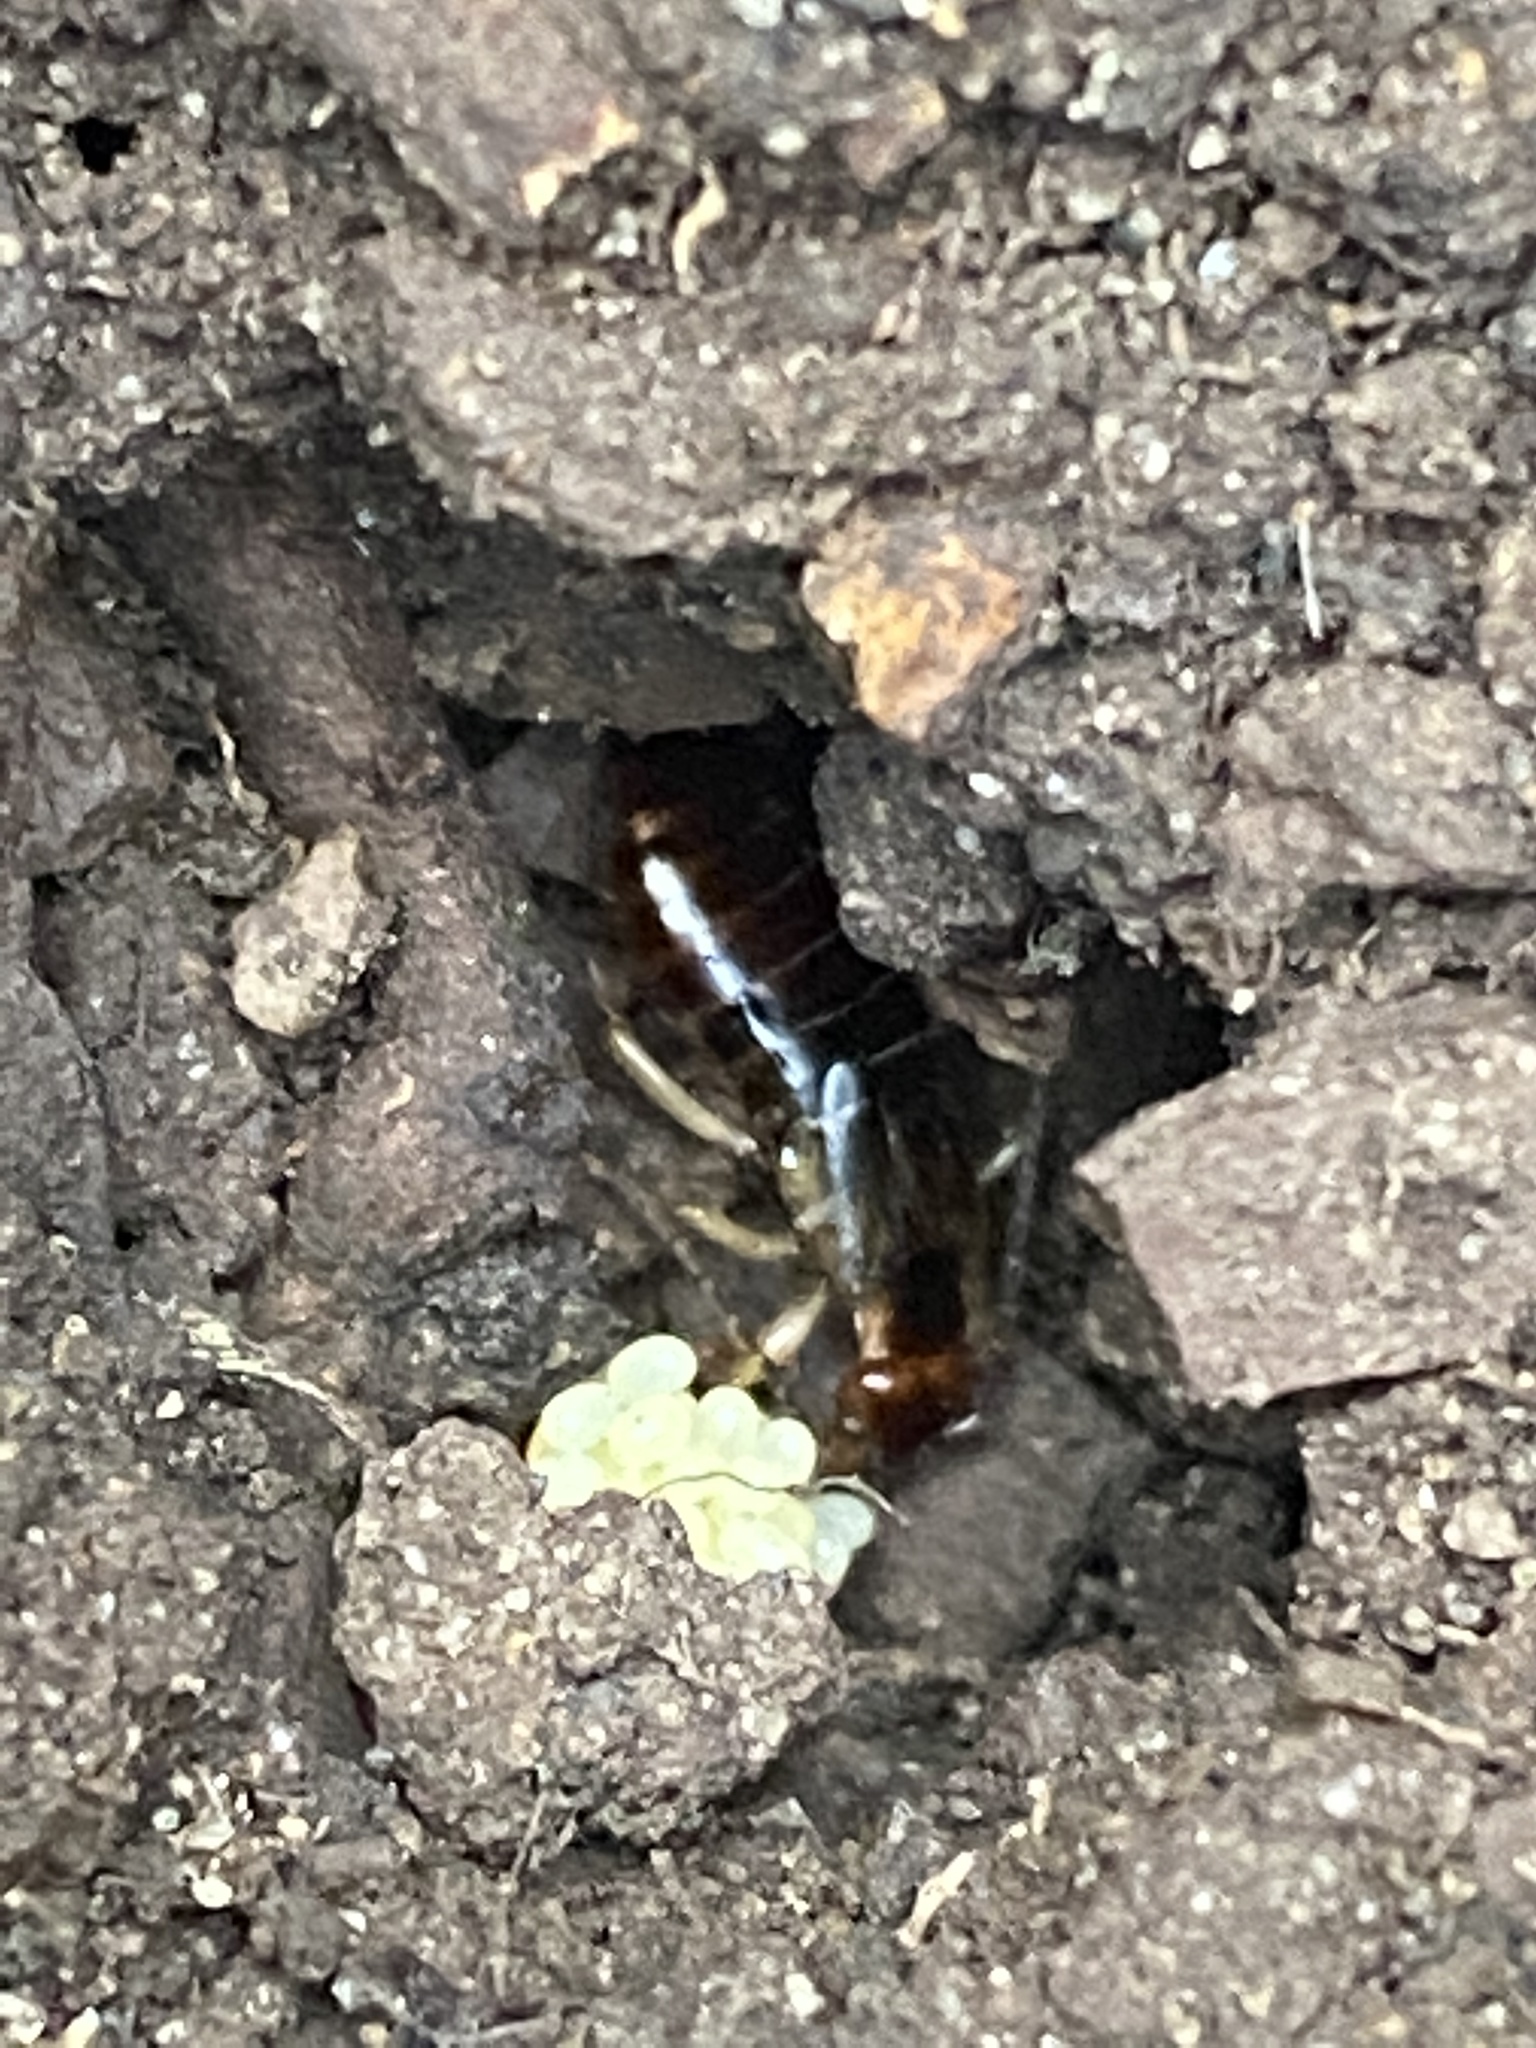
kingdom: Animalia
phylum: Arthropoda
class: Insecta
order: Dermaptera
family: Forficulidae
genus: Forficula
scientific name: Forficula
